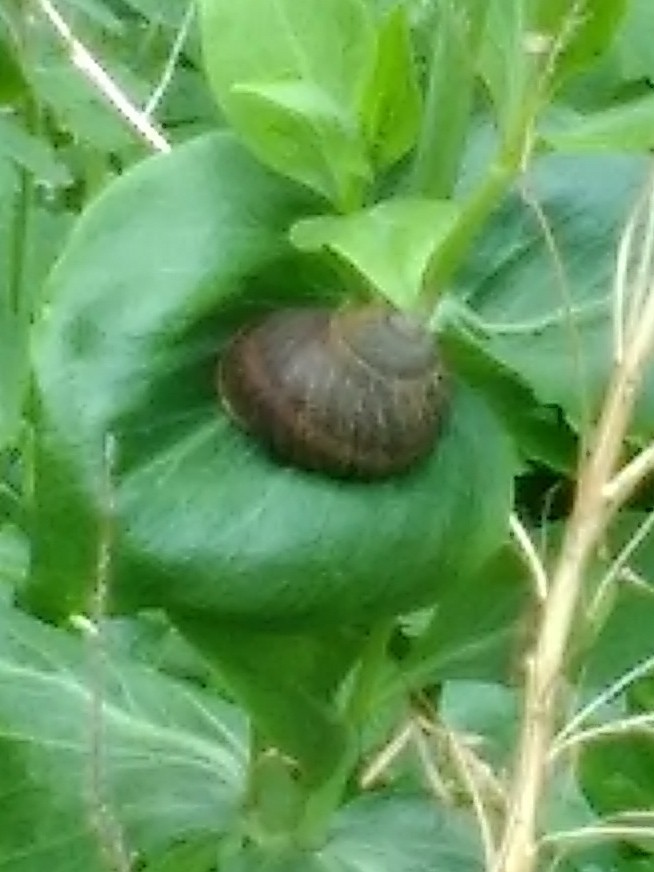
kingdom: Animalia
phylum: Mollusca
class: Gastropoda
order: Stylommatophora
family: Helicidae
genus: Cornu
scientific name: Cornu aspersum
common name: Brown garden snail
